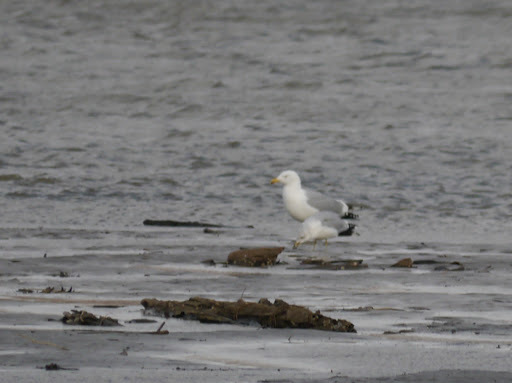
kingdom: Animalia
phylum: Chordata
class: Aves
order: Charadriiformes
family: Laridae
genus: Larus
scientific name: Larus argentatus
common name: Herring gull
